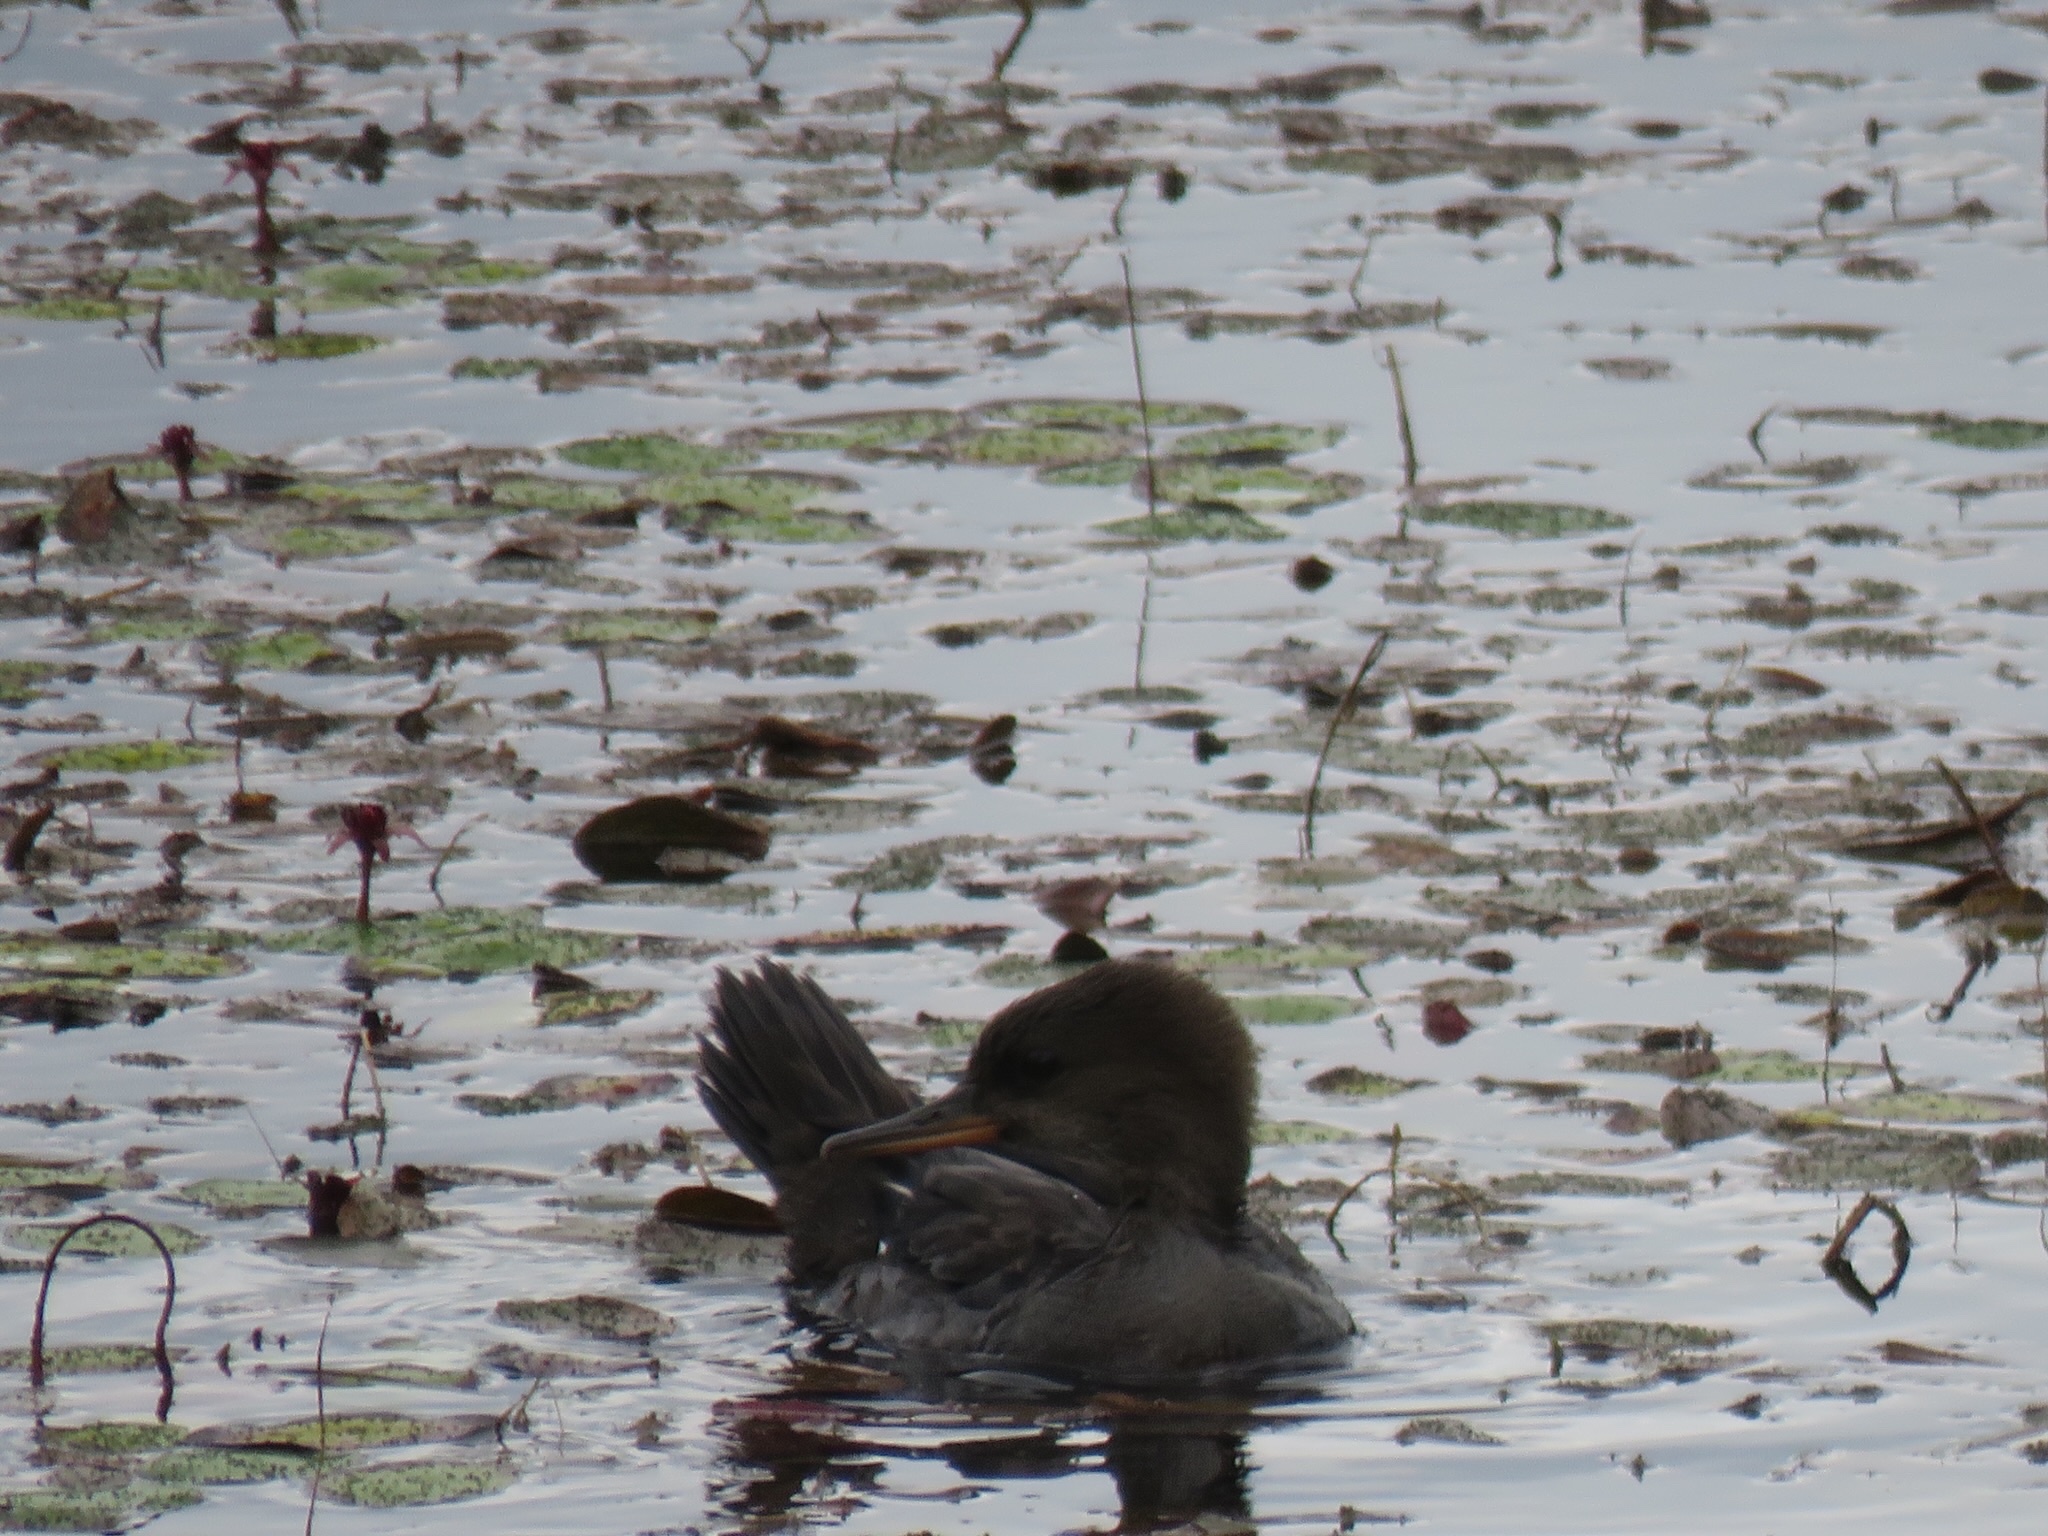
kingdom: Animalia
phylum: Chordata
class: Aves
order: Anseriformes
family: Anatidae
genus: Lophodytes
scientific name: Lophodytes cucullatus
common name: Hooded merganser
